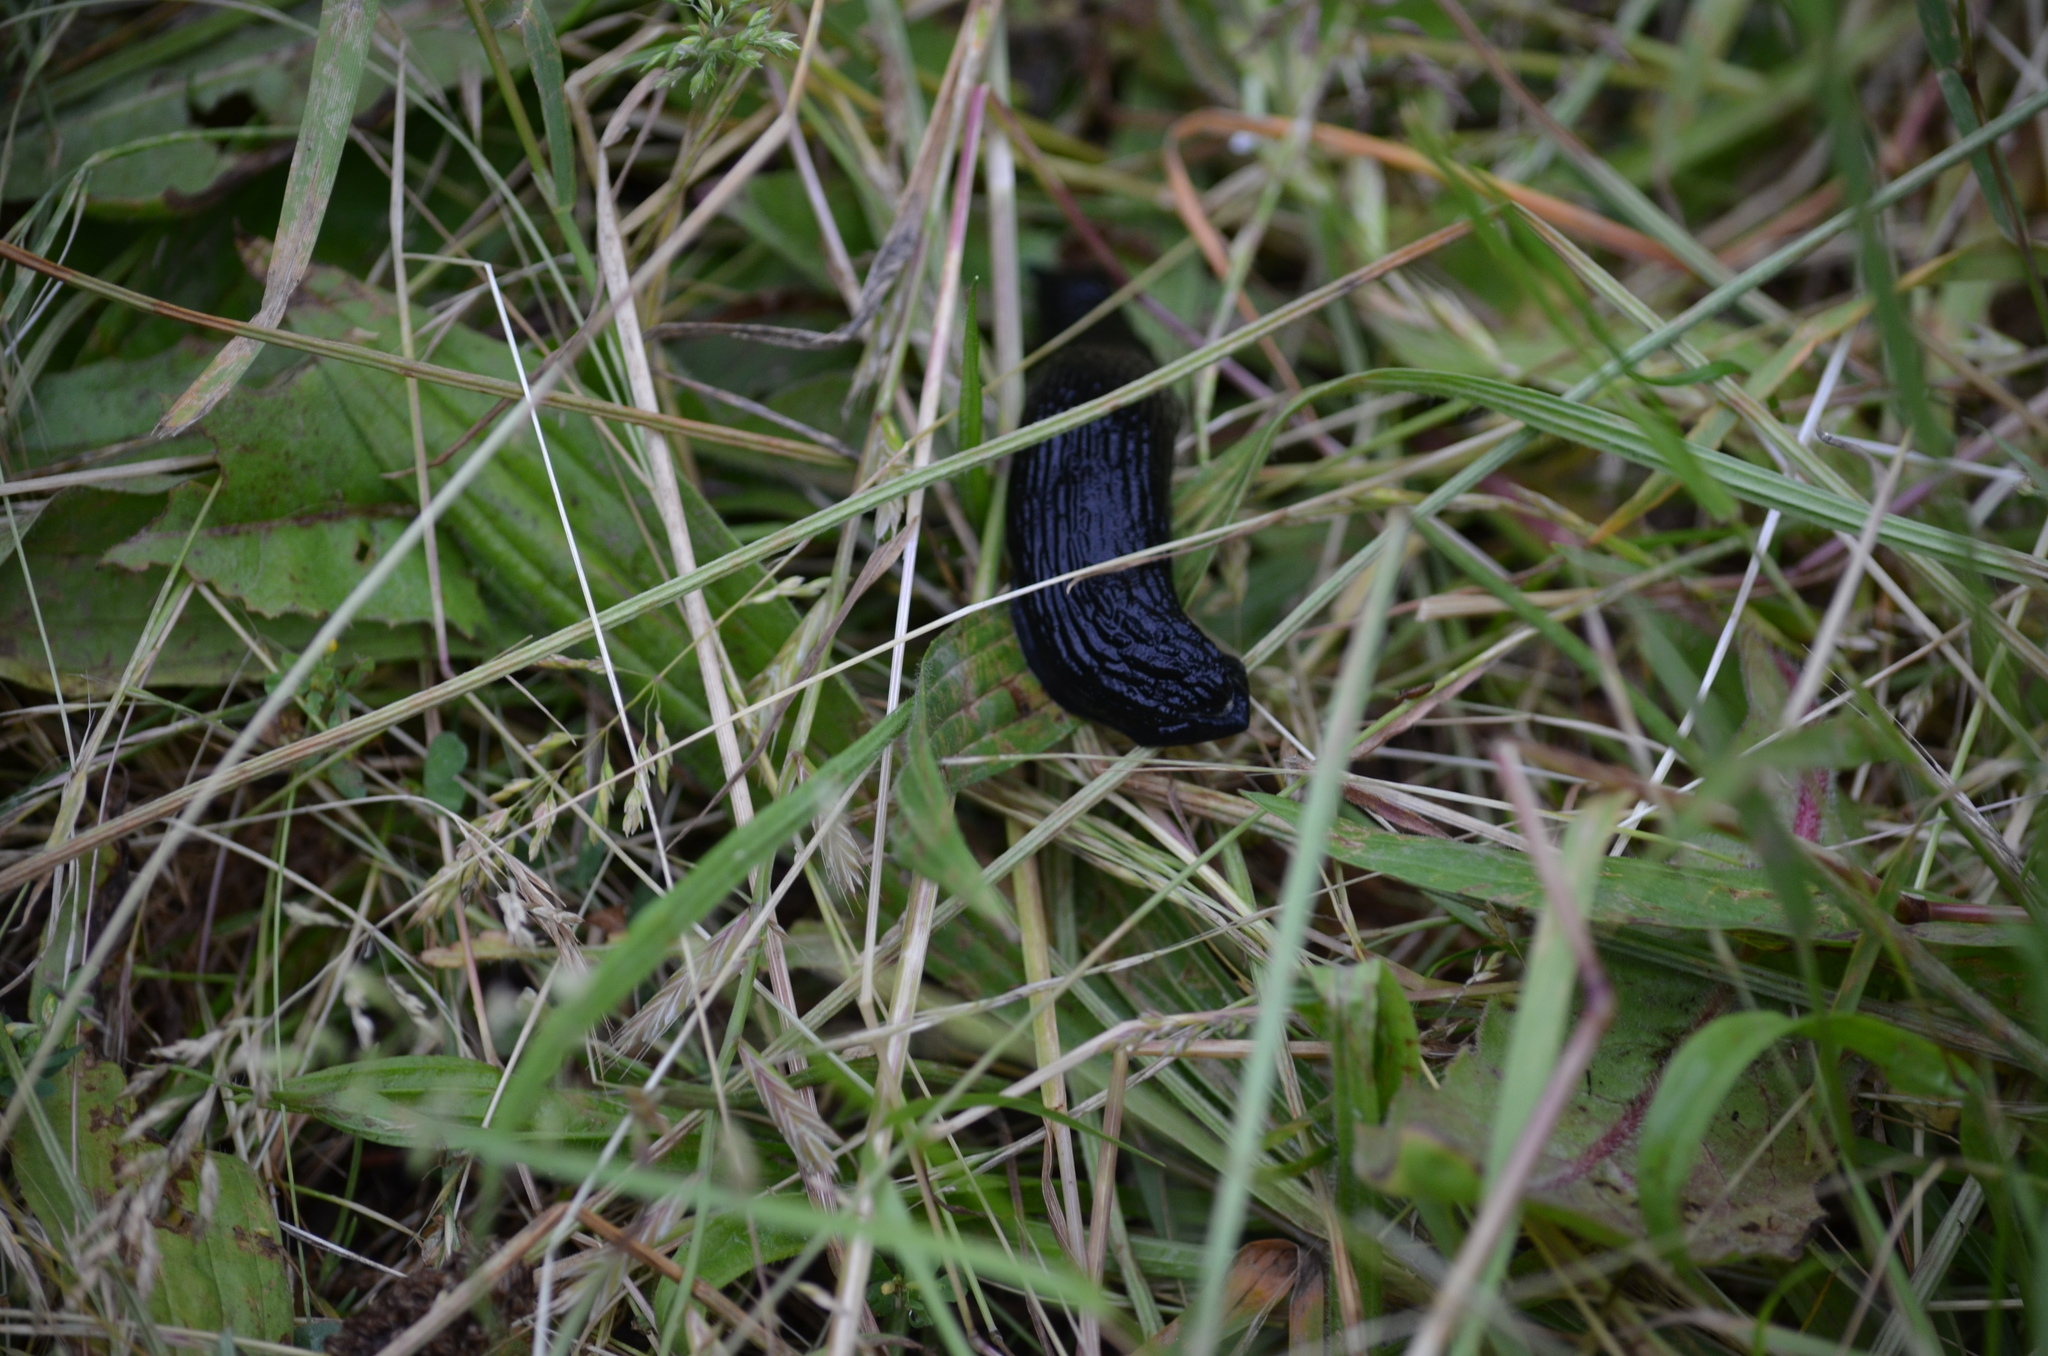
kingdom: Animalia
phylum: Mollusca
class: Gastropoda
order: Stylommatophora
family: Arionidae
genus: Arion
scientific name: Arion rufus
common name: Chocolate arion
